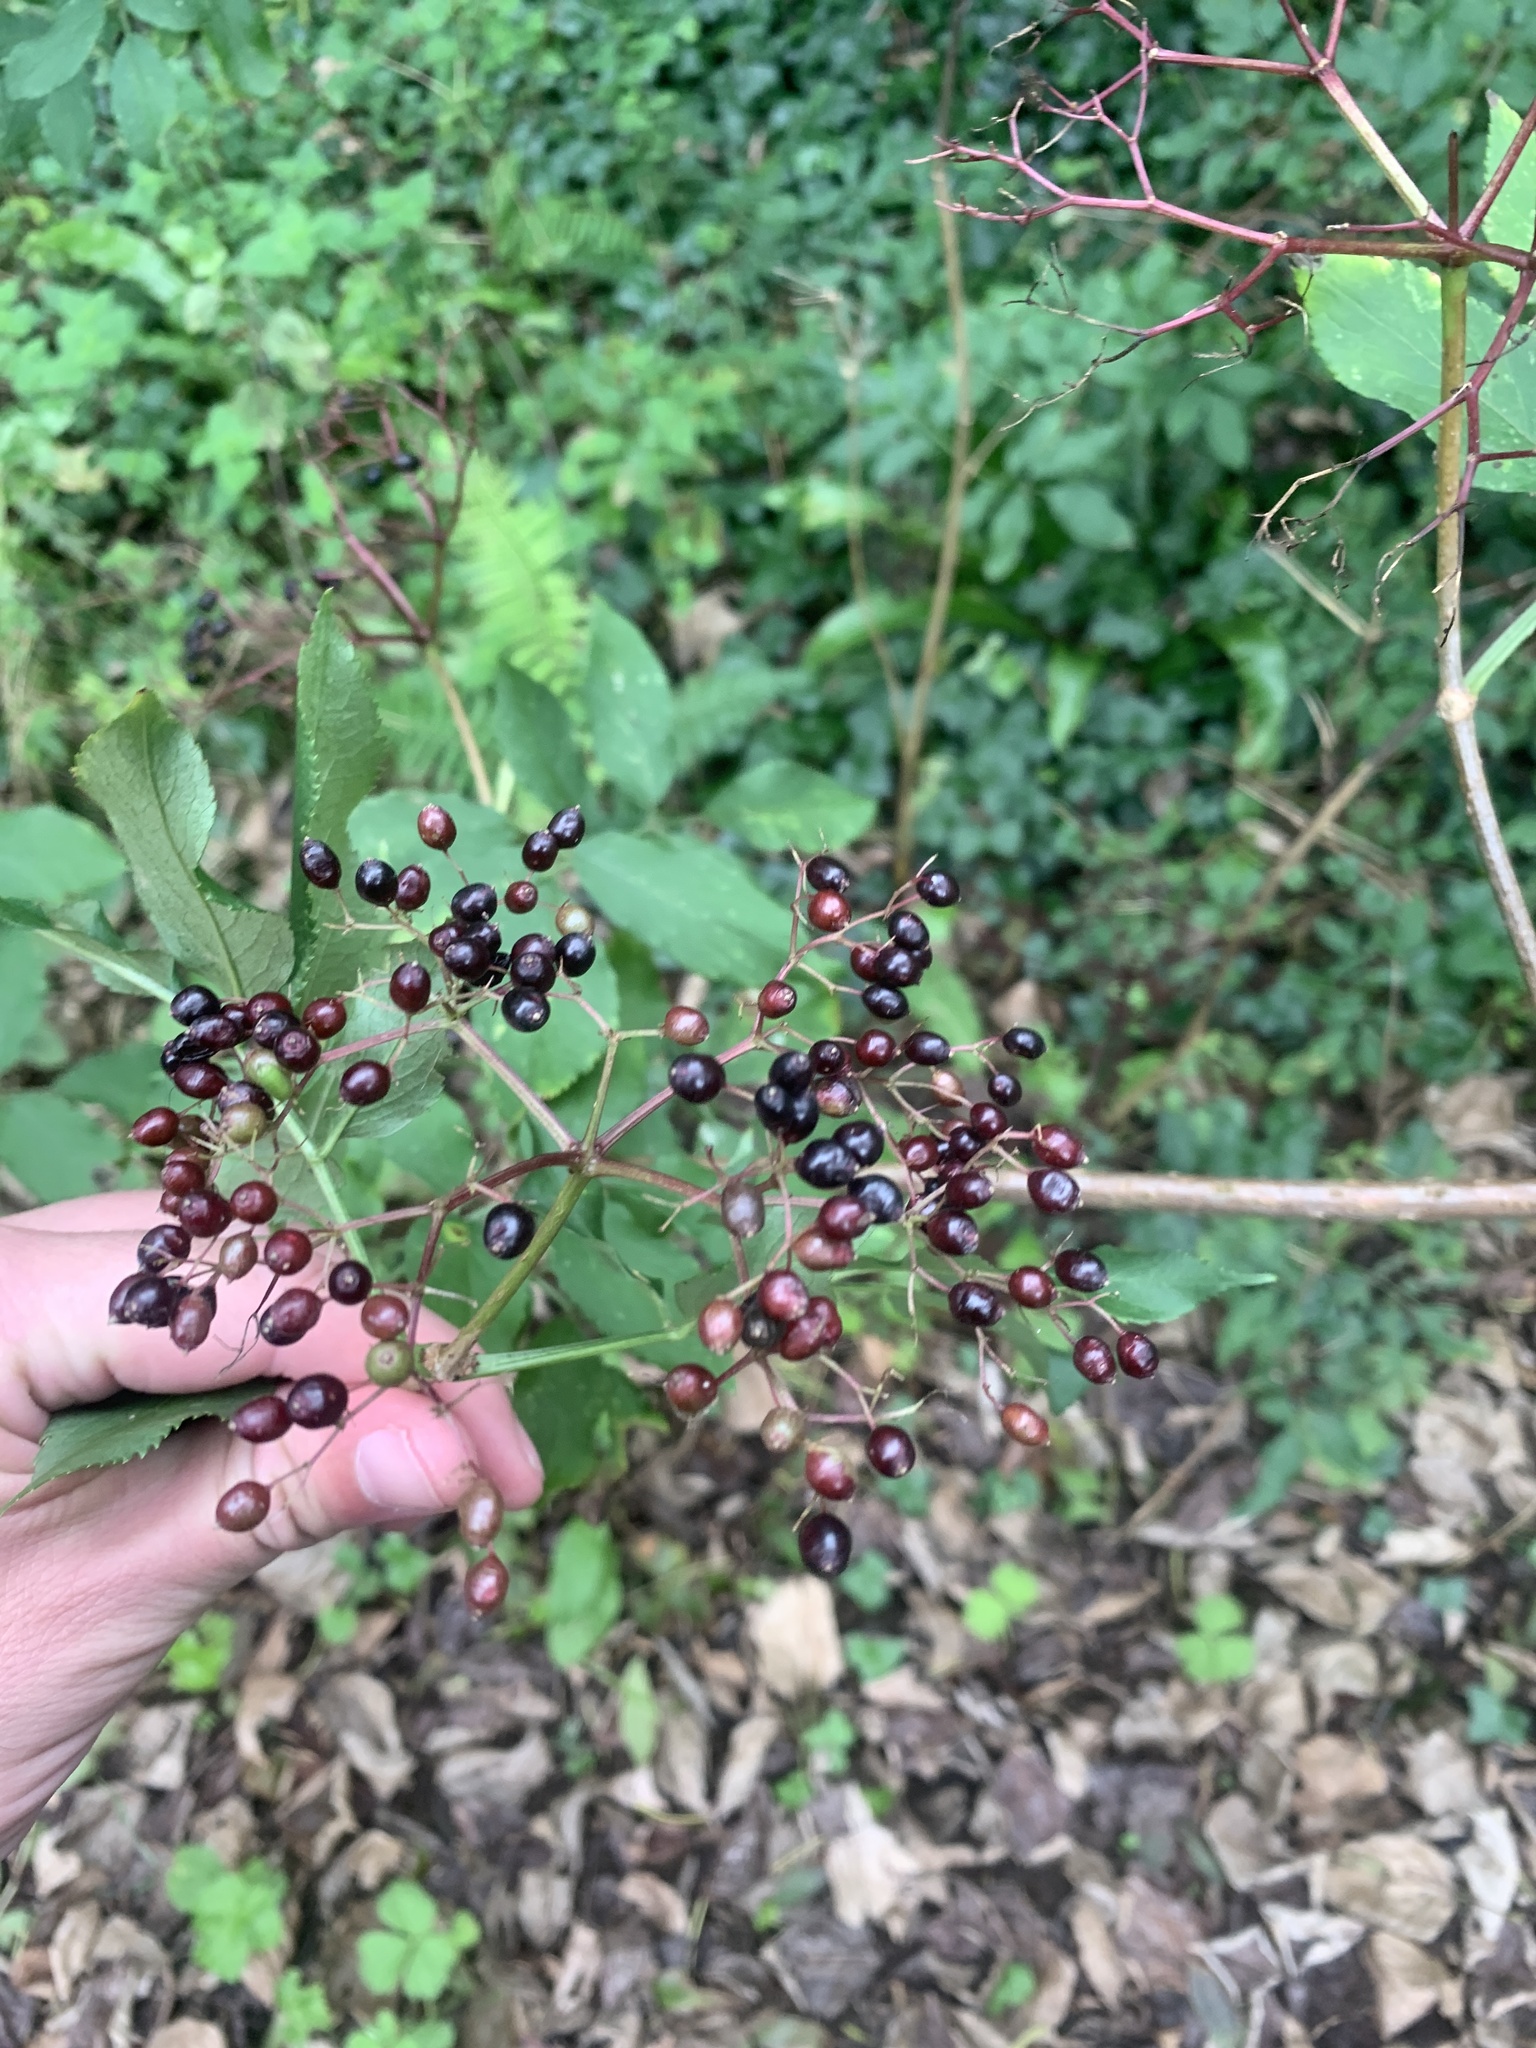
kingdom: Plantae
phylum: Tracheophyta
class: Magnoliopsida
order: Dipsacales
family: Viburnaceae
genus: Sambucus
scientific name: Sambucus nigra
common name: Elder
